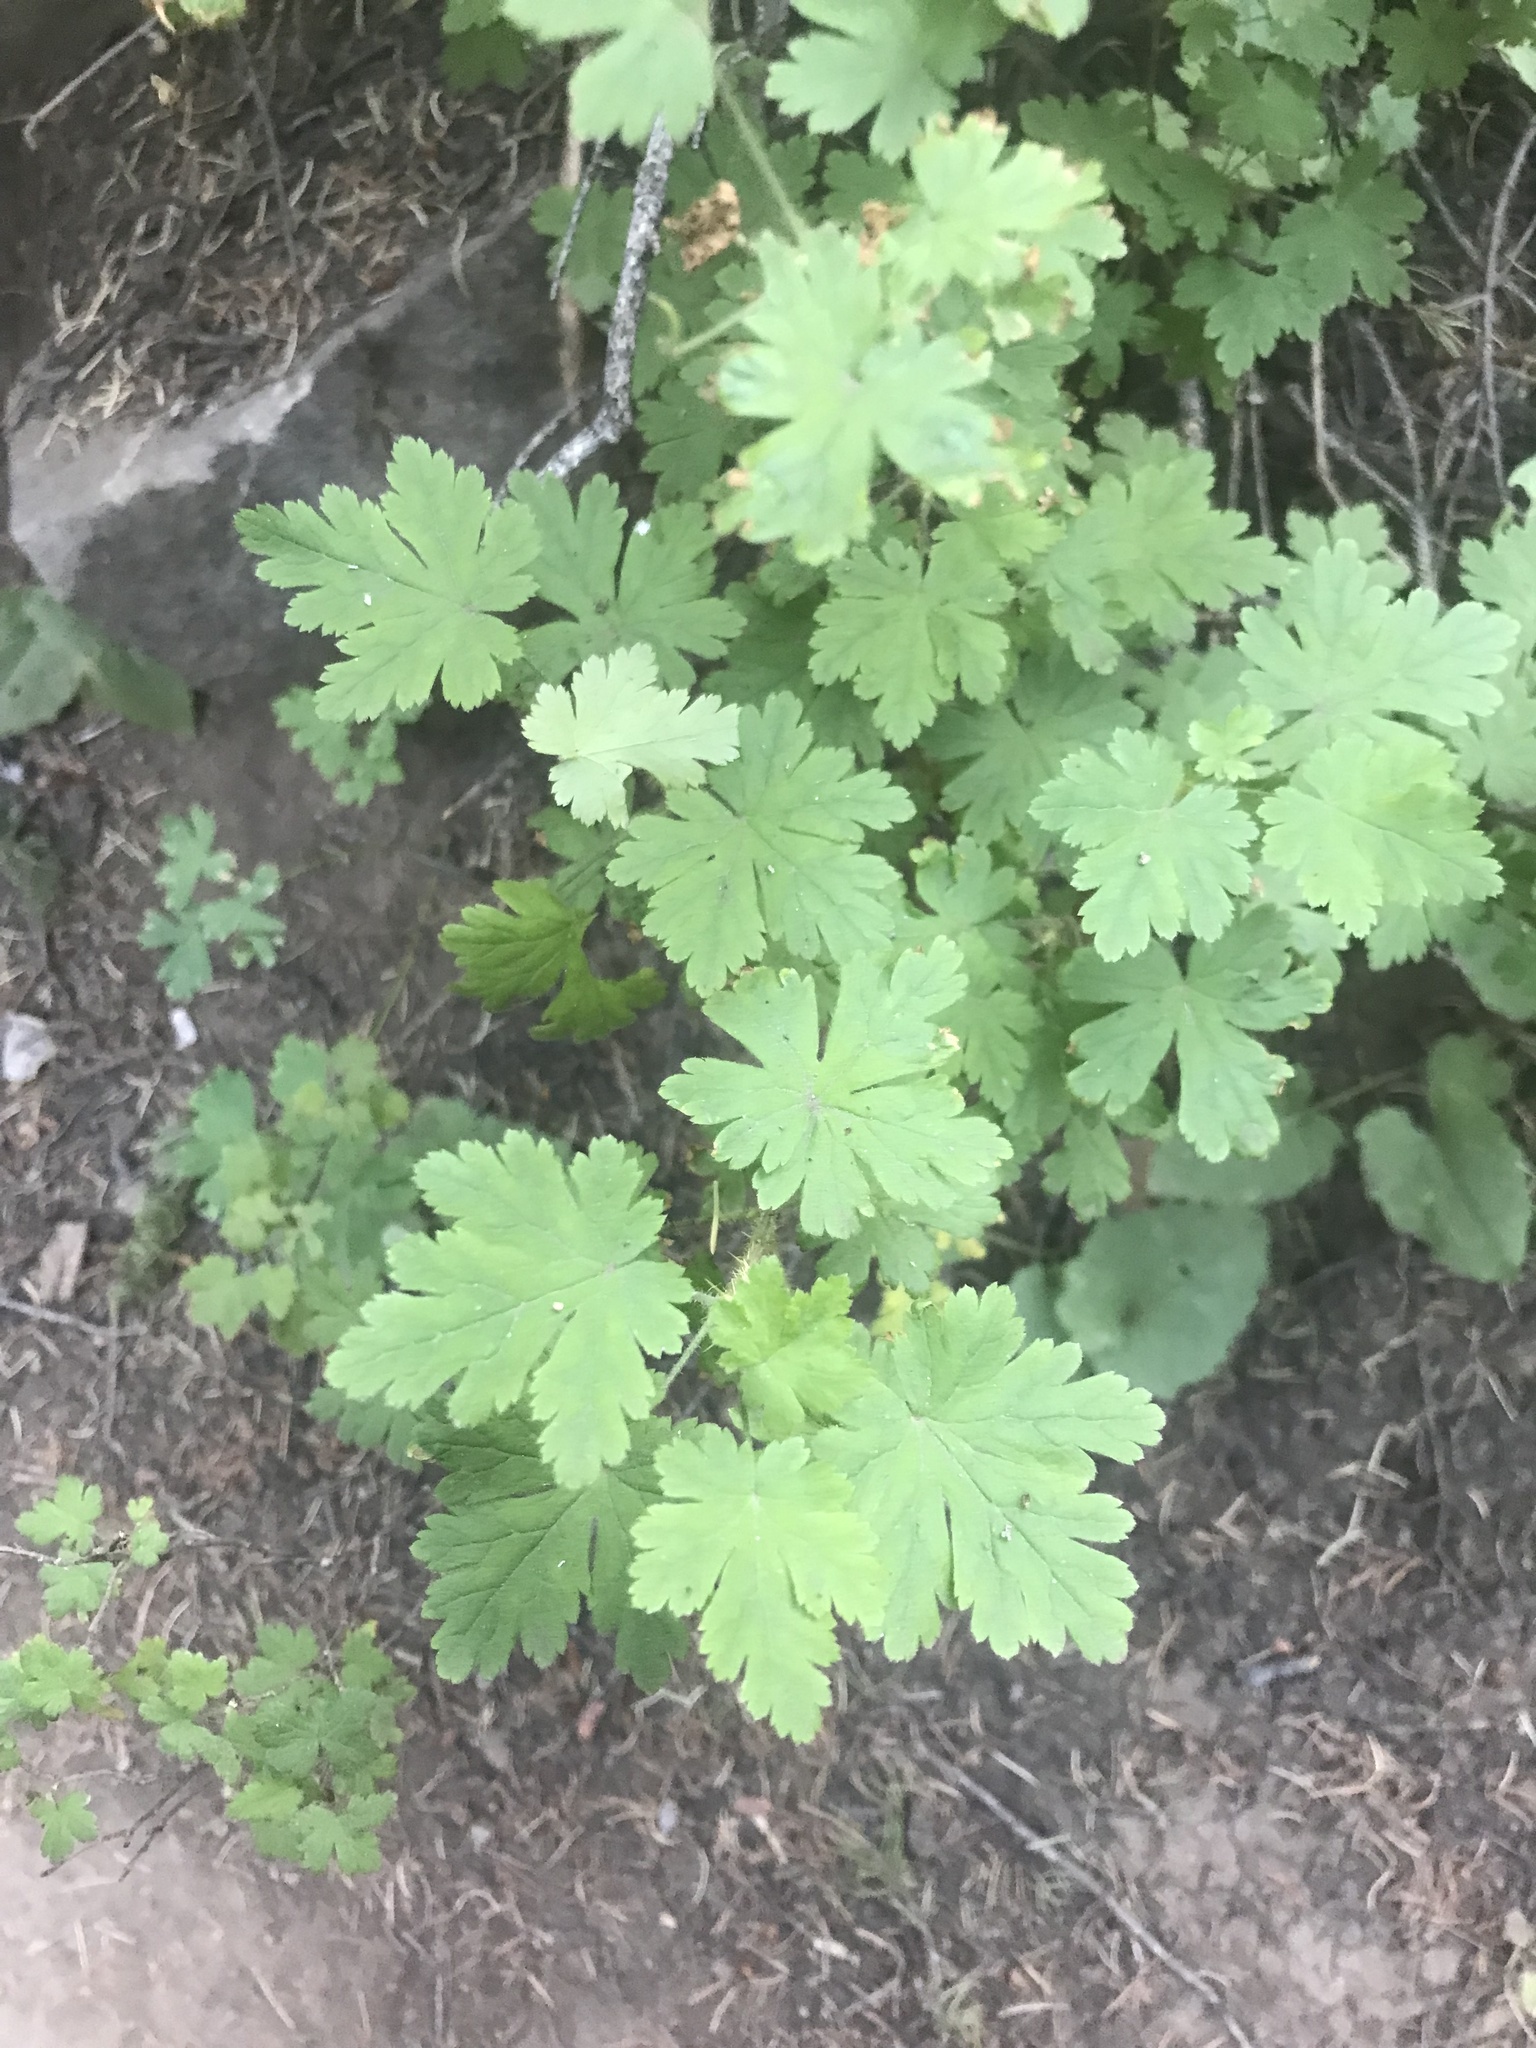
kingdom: Plantae
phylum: Tracheophyta
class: Magnoliopsida
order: Saxifragales
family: Grossulariaceae
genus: Ribes
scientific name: Ribes montigenum
